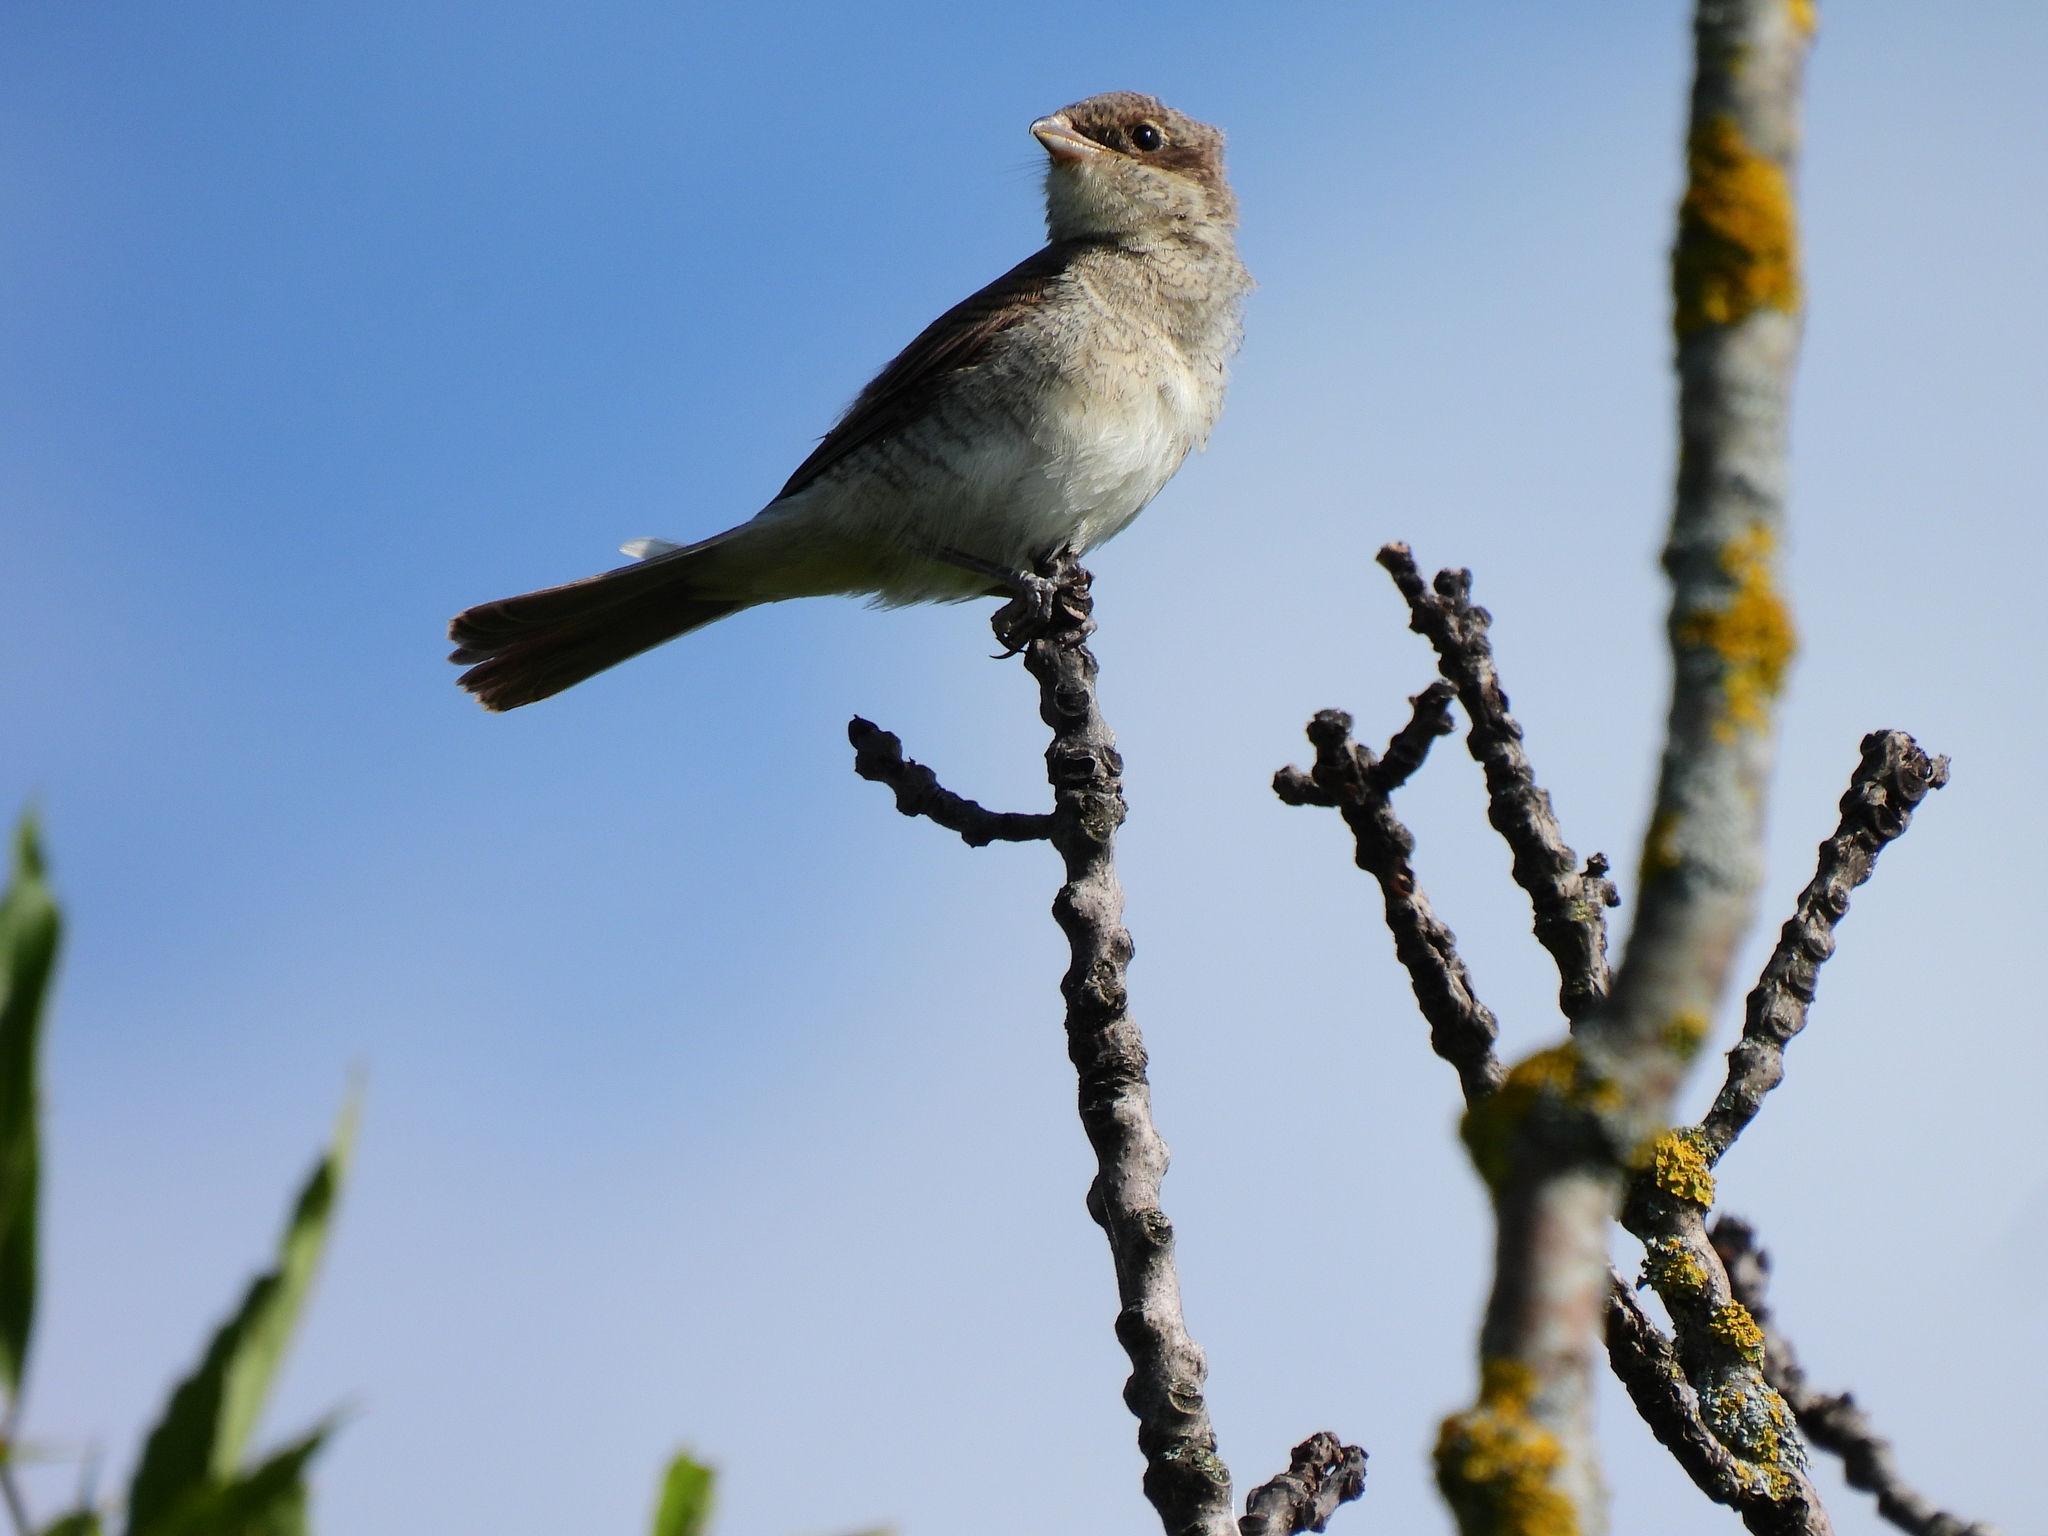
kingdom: Animalia
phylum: Chordata
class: Aves
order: Passeriformes
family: Laniidae
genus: Lanius
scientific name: Lanius collurio
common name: Red-backed shrike
